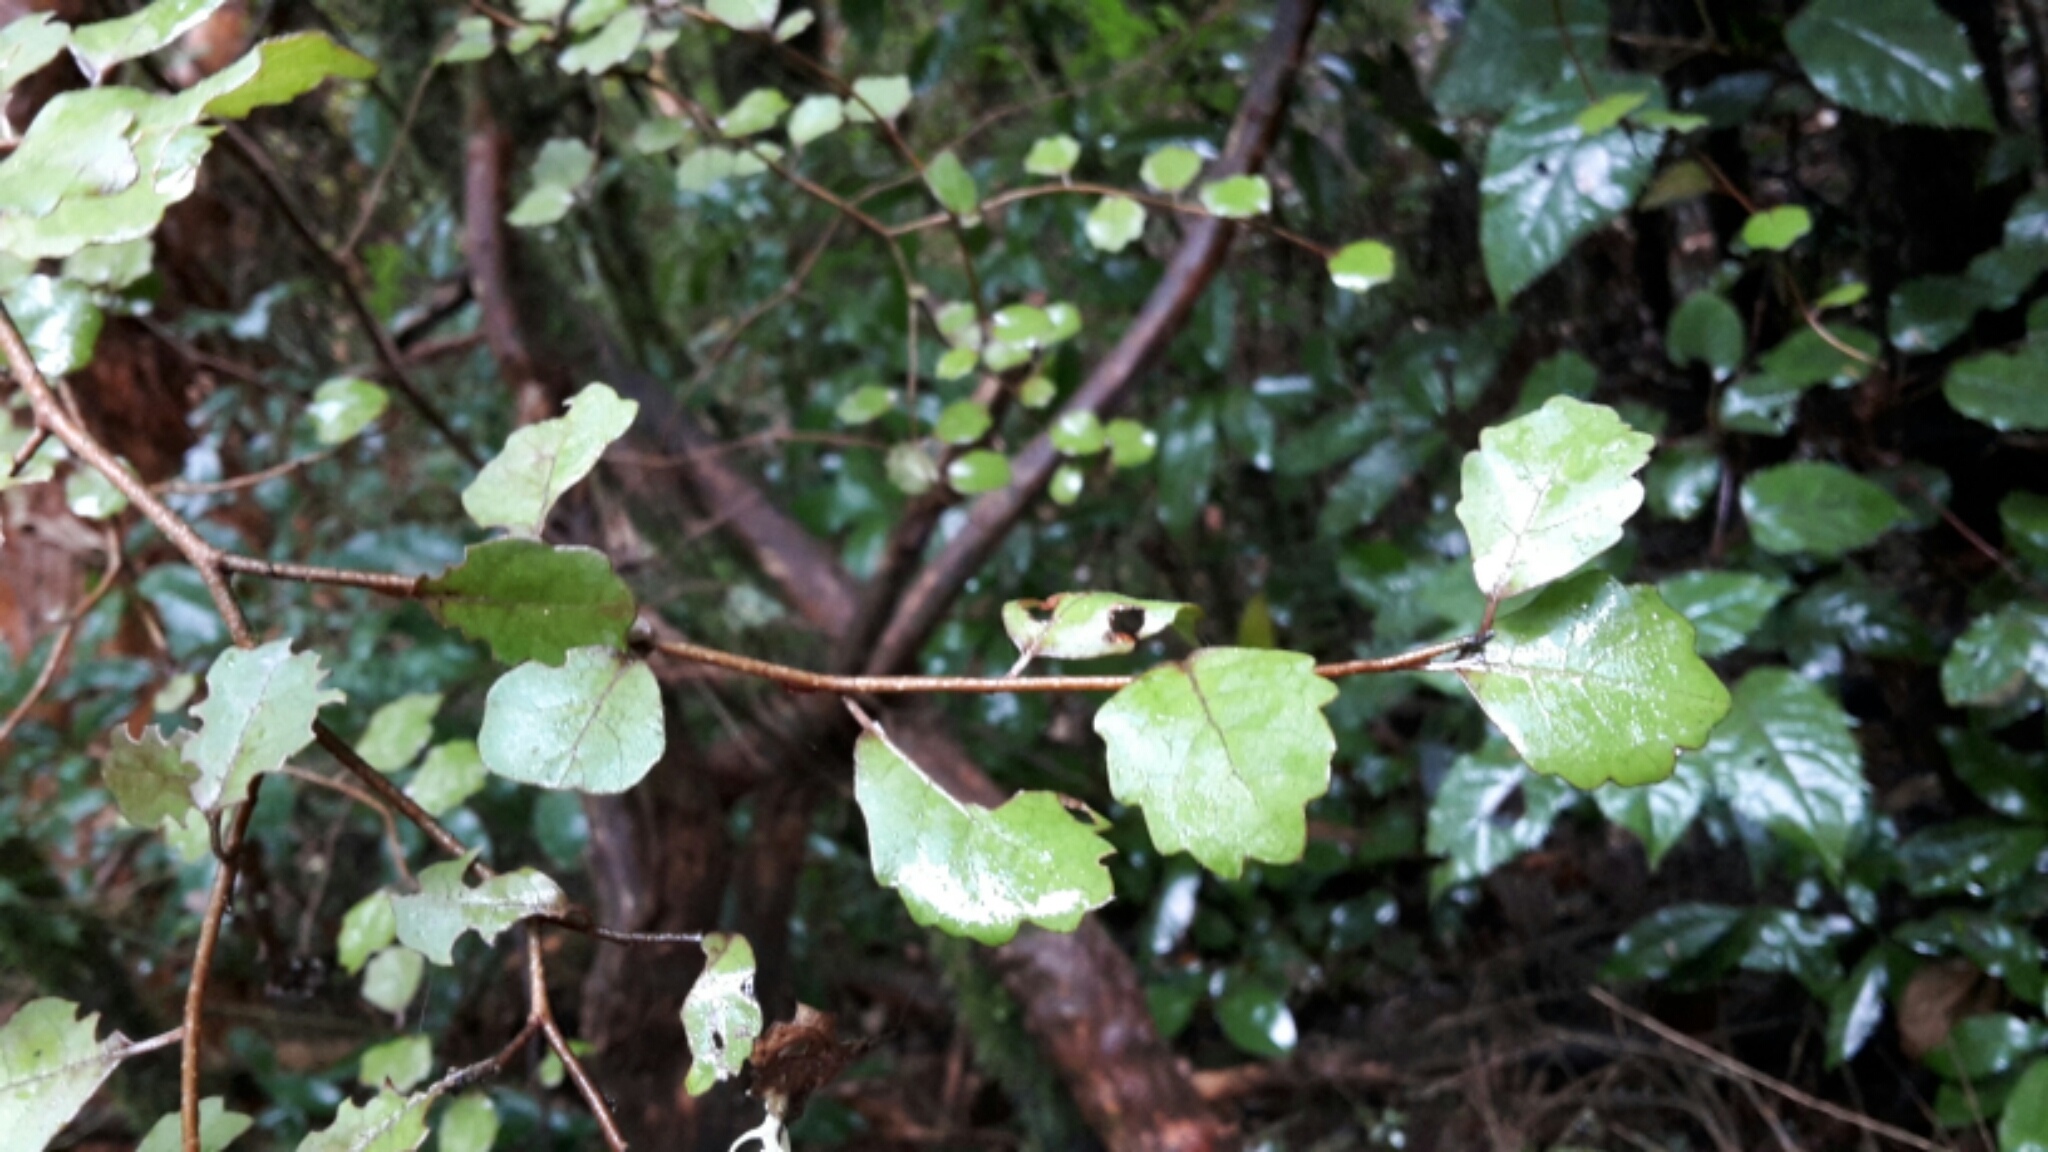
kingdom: Plantae
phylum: Tracheophyta
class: Magnoliopsida
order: Apiales
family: Pennantiaceae
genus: Pennantia
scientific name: Pennantia corymbosa
